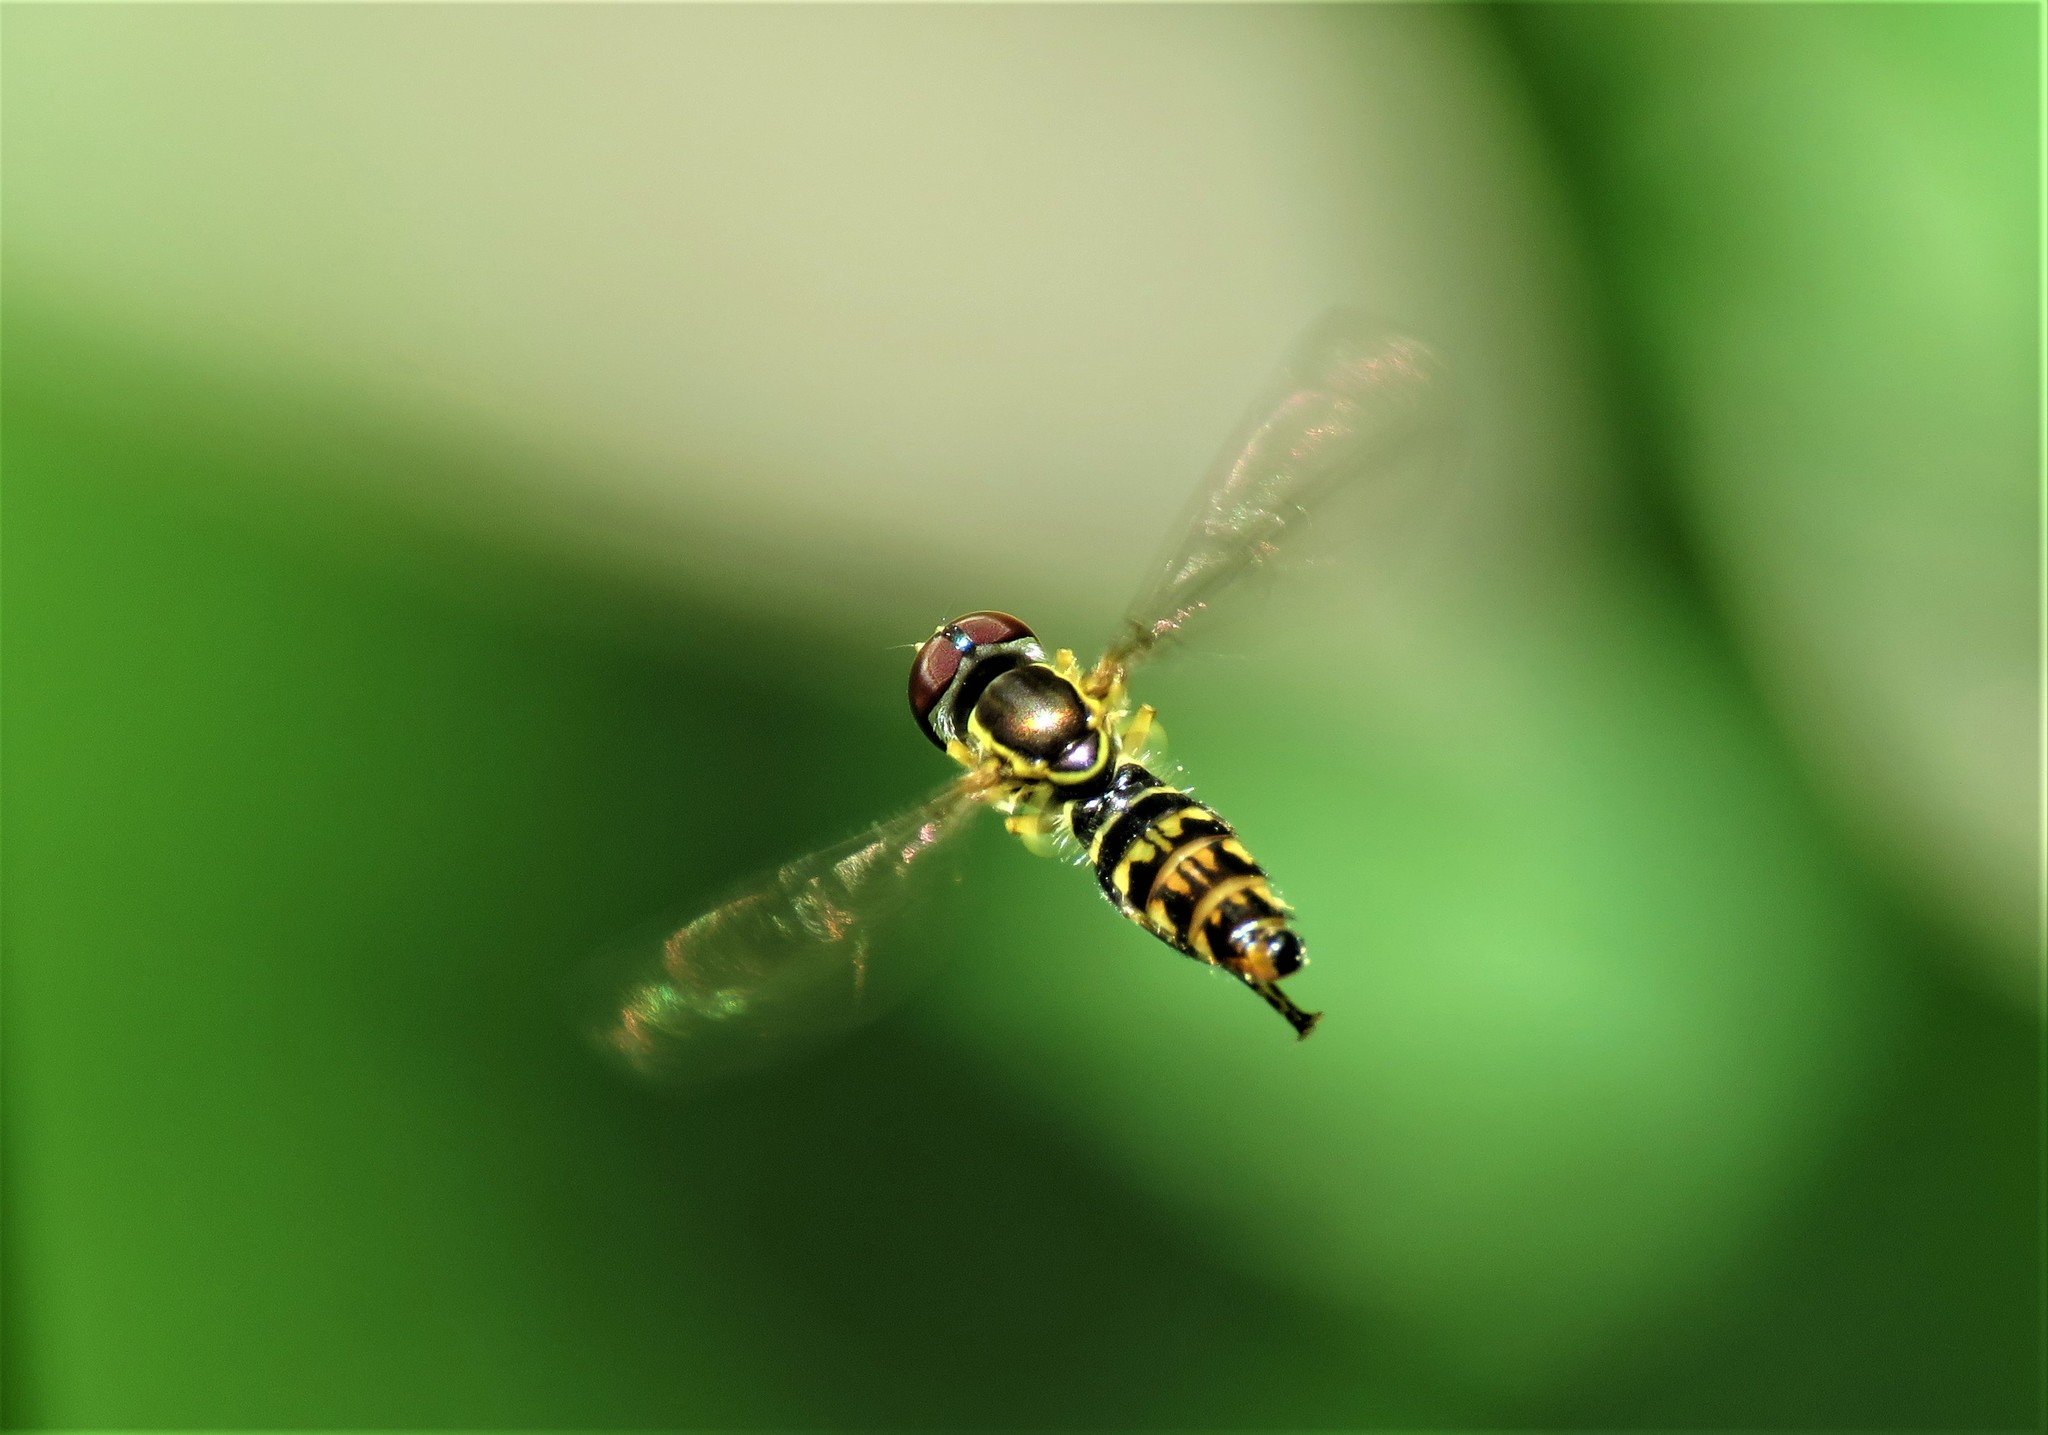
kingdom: Animalia
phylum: Arthropoda
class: Insecta
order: Diptera
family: Syrphidae
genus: Toxomerus
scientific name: Toxomerus geminatus
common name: Eastern calligrapher
